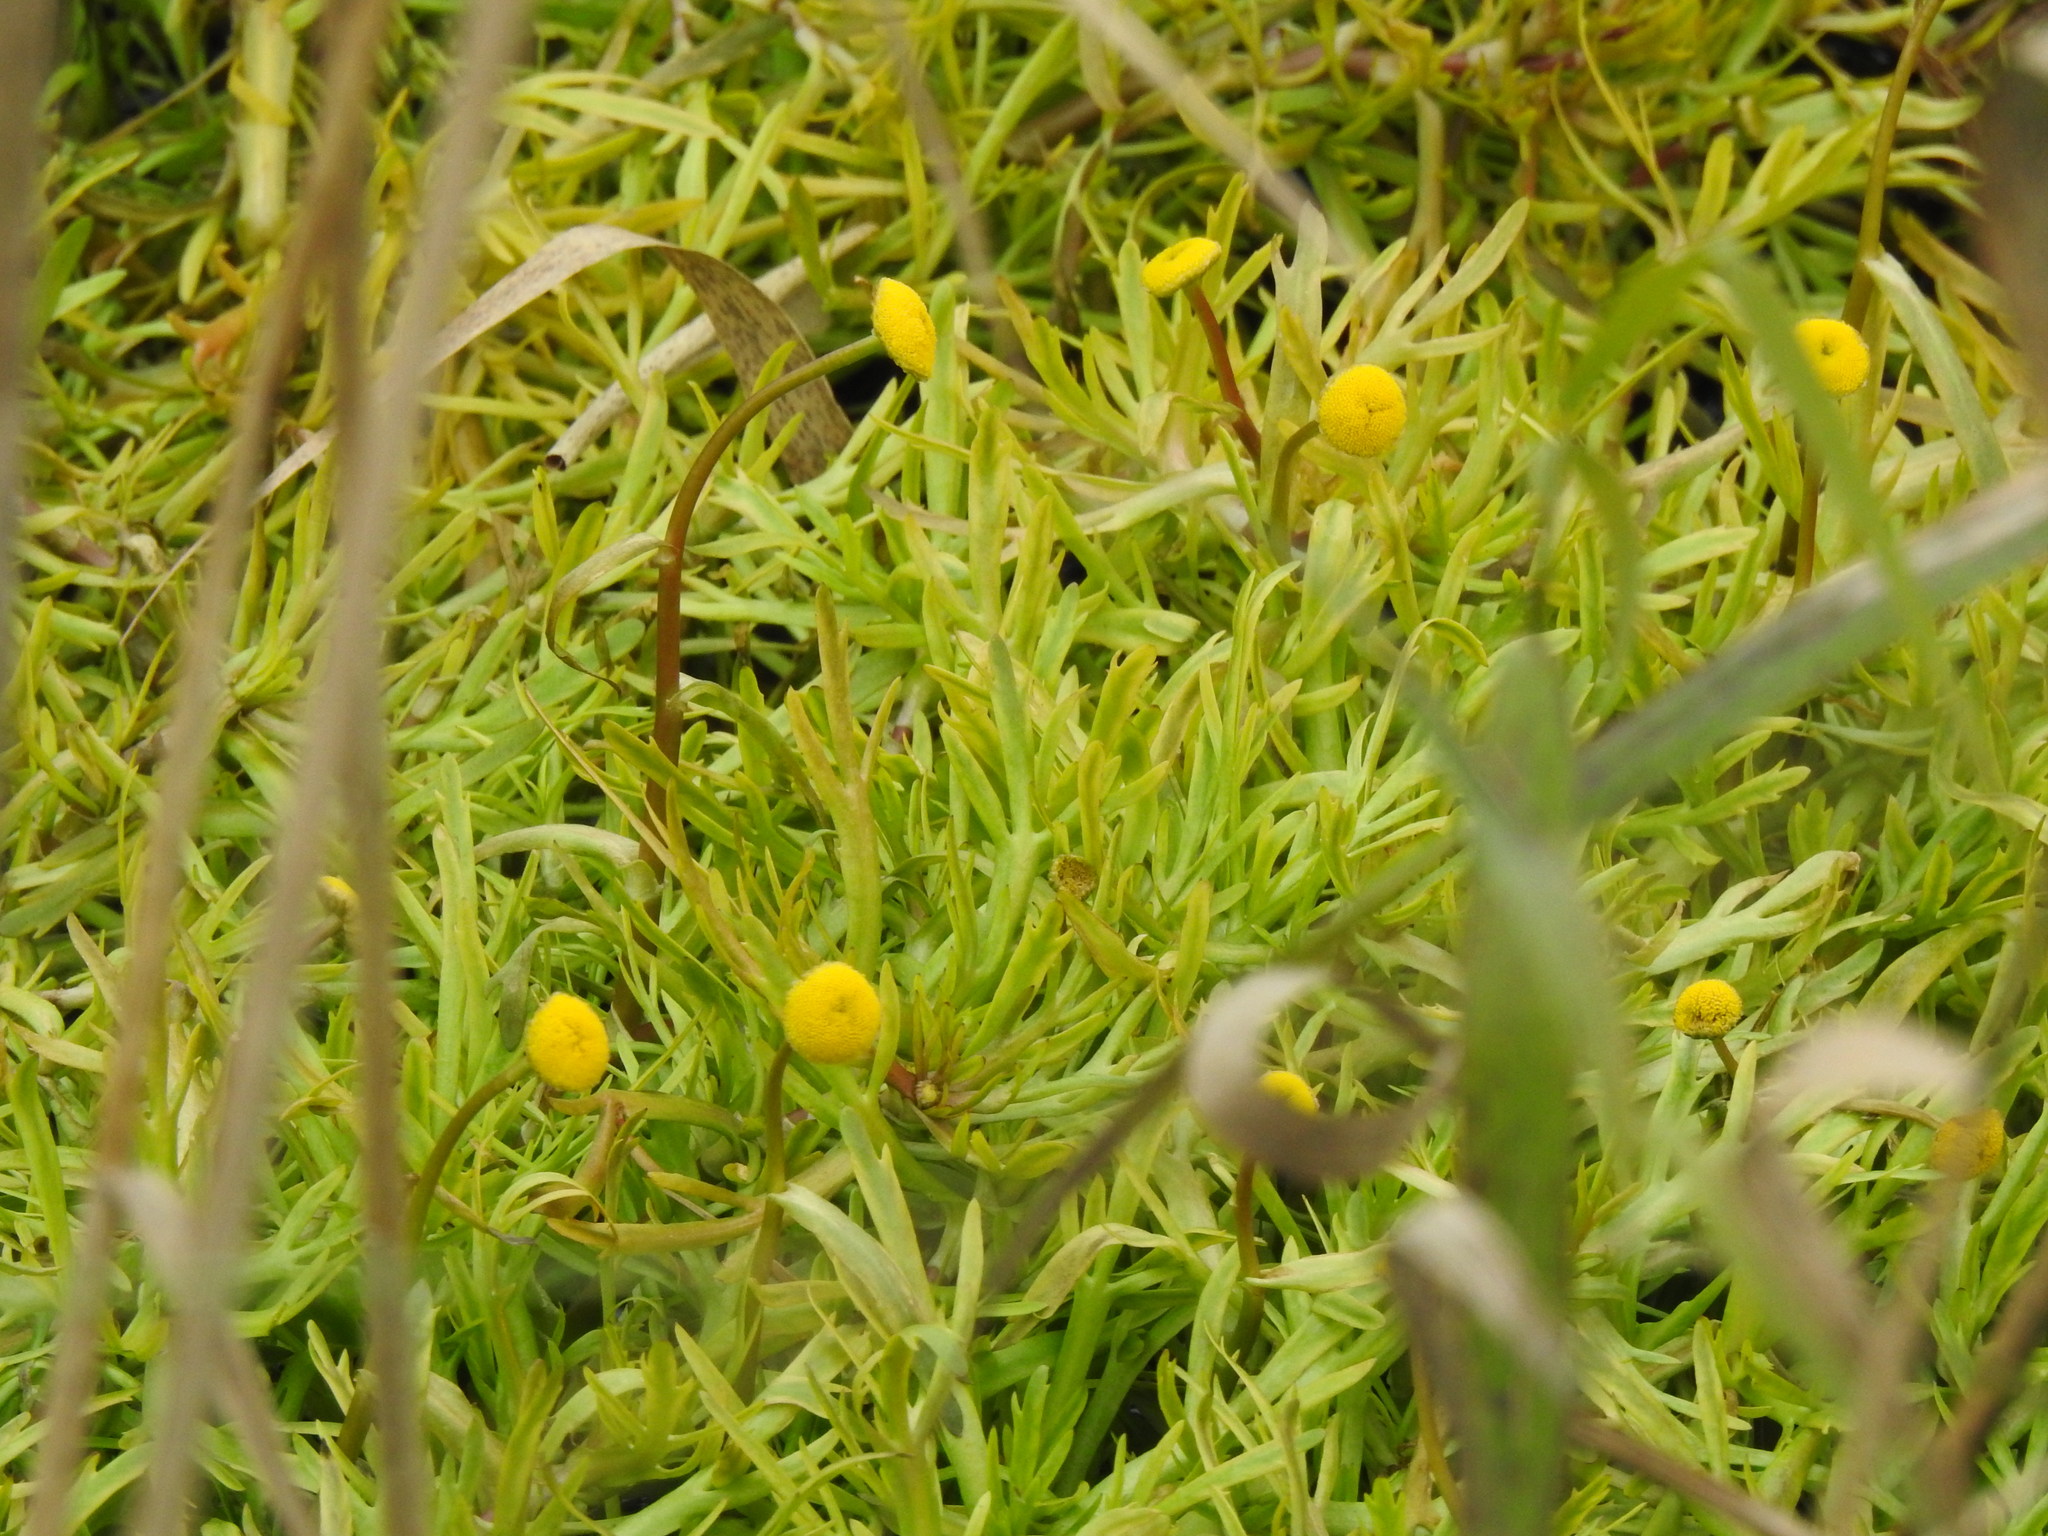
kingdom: Plantae
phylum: Tracheophyta
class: Magnoliopsida
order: Asterales
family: Asteraceae
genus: Cotula
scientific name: Cotula coronopifolia
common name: Buttonweed
